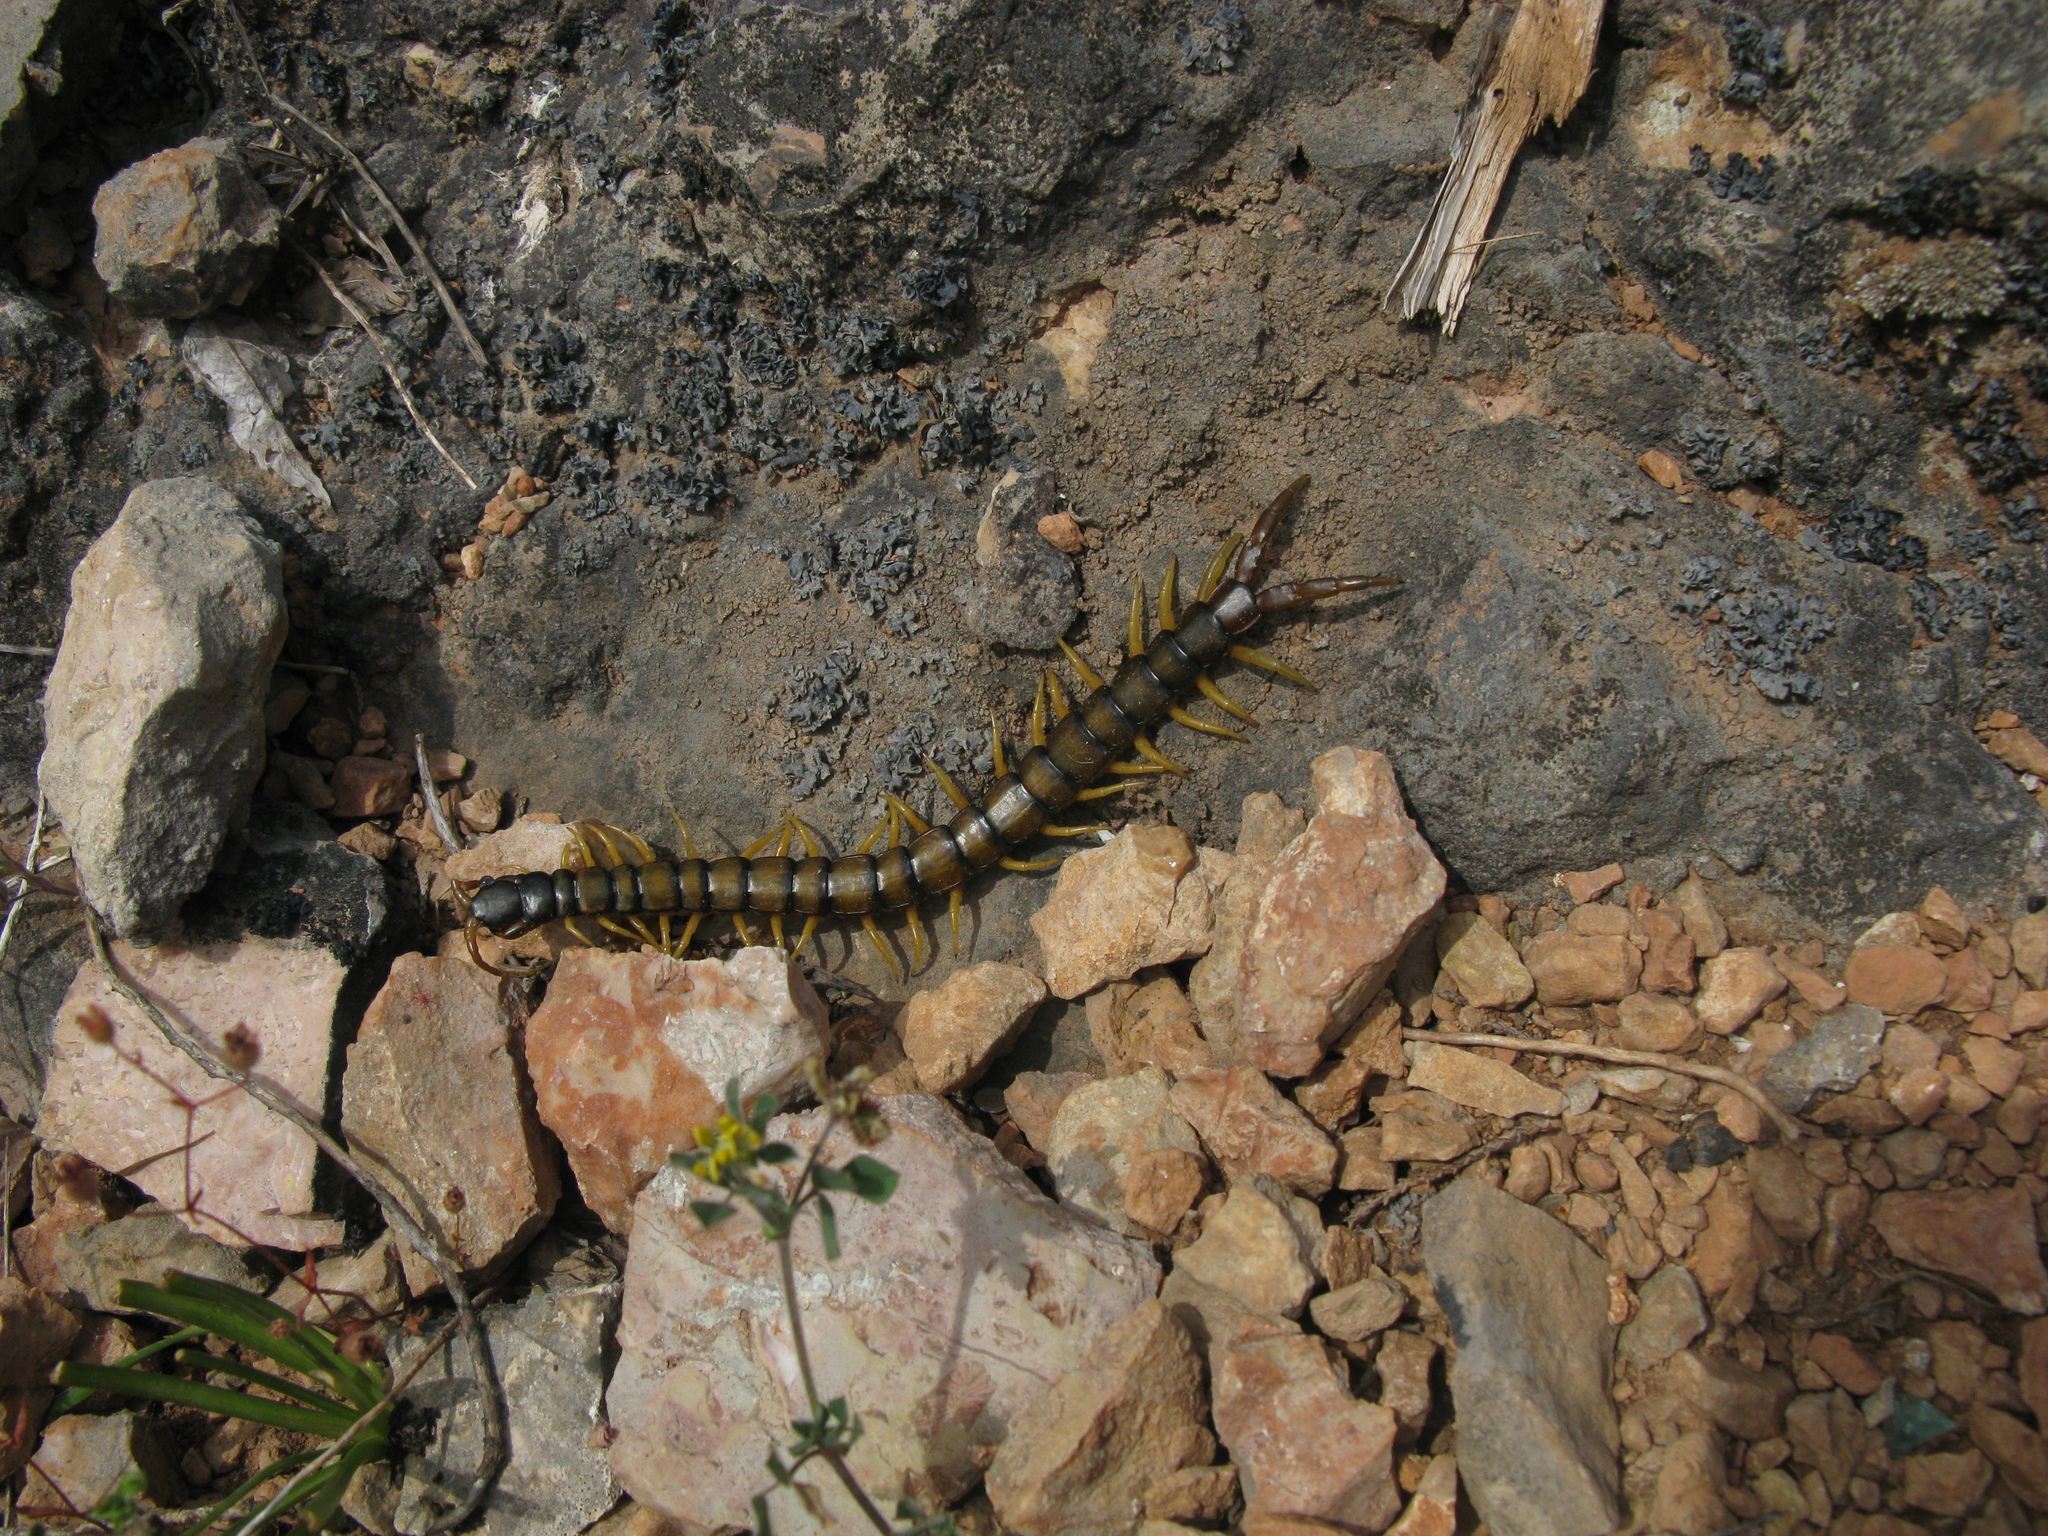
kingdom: Animalia
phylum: Arthropoda
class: Chilopoda
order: Scolopendromorpha
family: Scolopendridae
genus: Scolopendra
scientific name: Scolopendra cingulata
